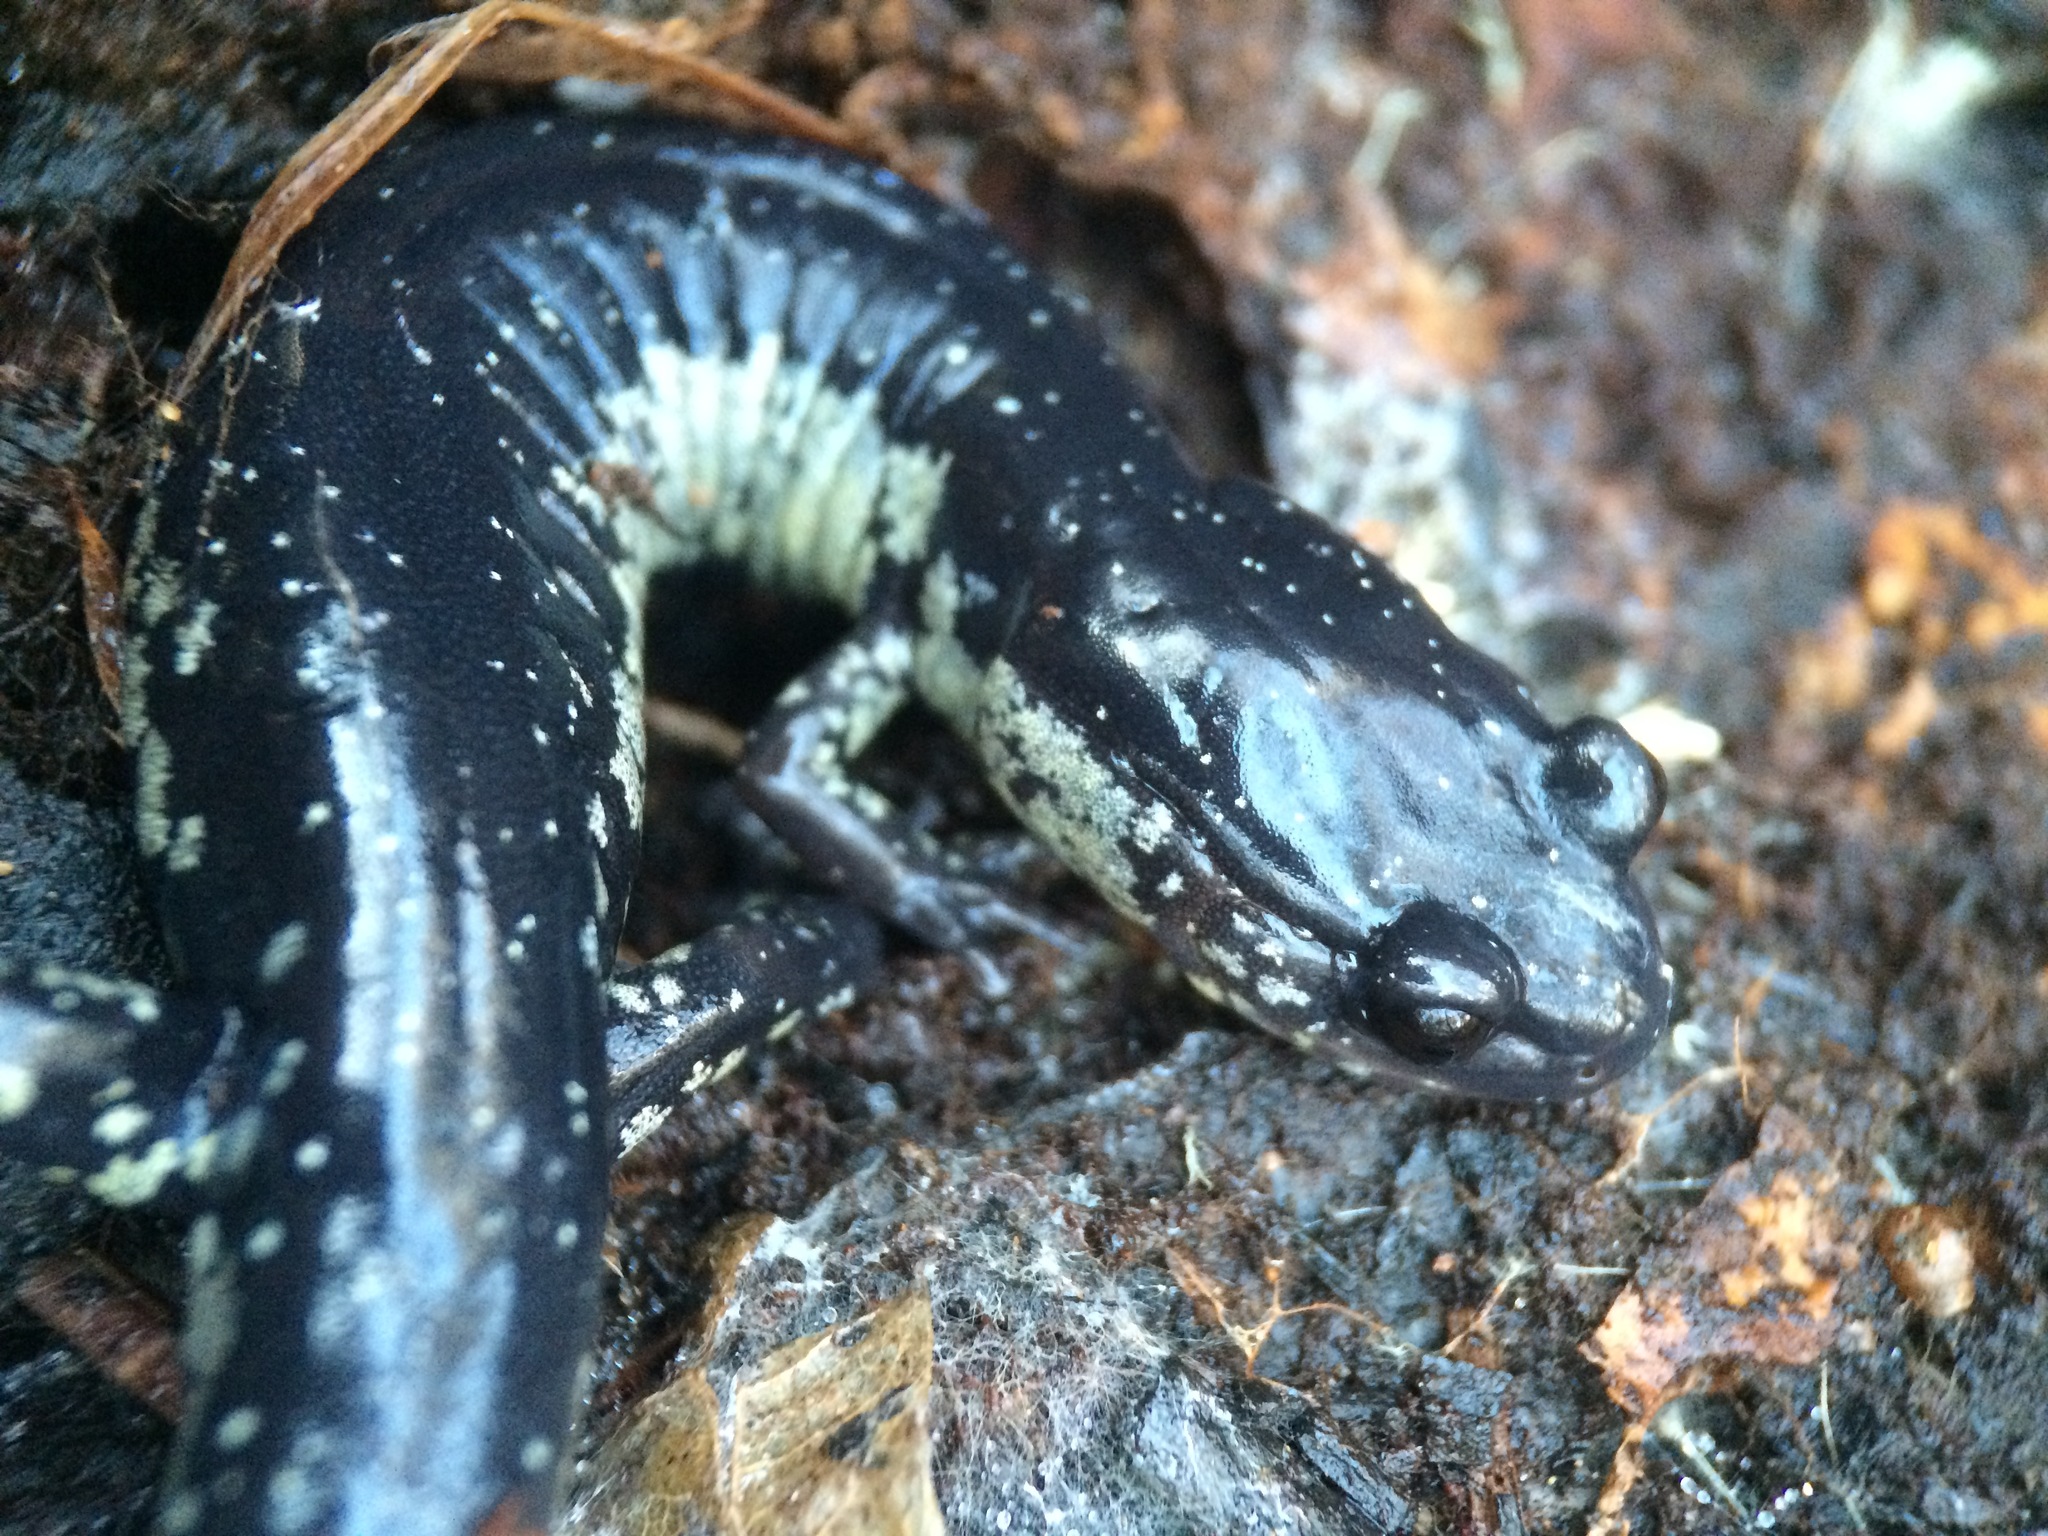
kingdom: Animalia
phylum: Chordata
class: Amphibia
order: Caudata
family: Plethodontidae
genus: Plethodon
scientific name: Plethodon chlorobryonis
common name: Atlantic coast slimy salamander
